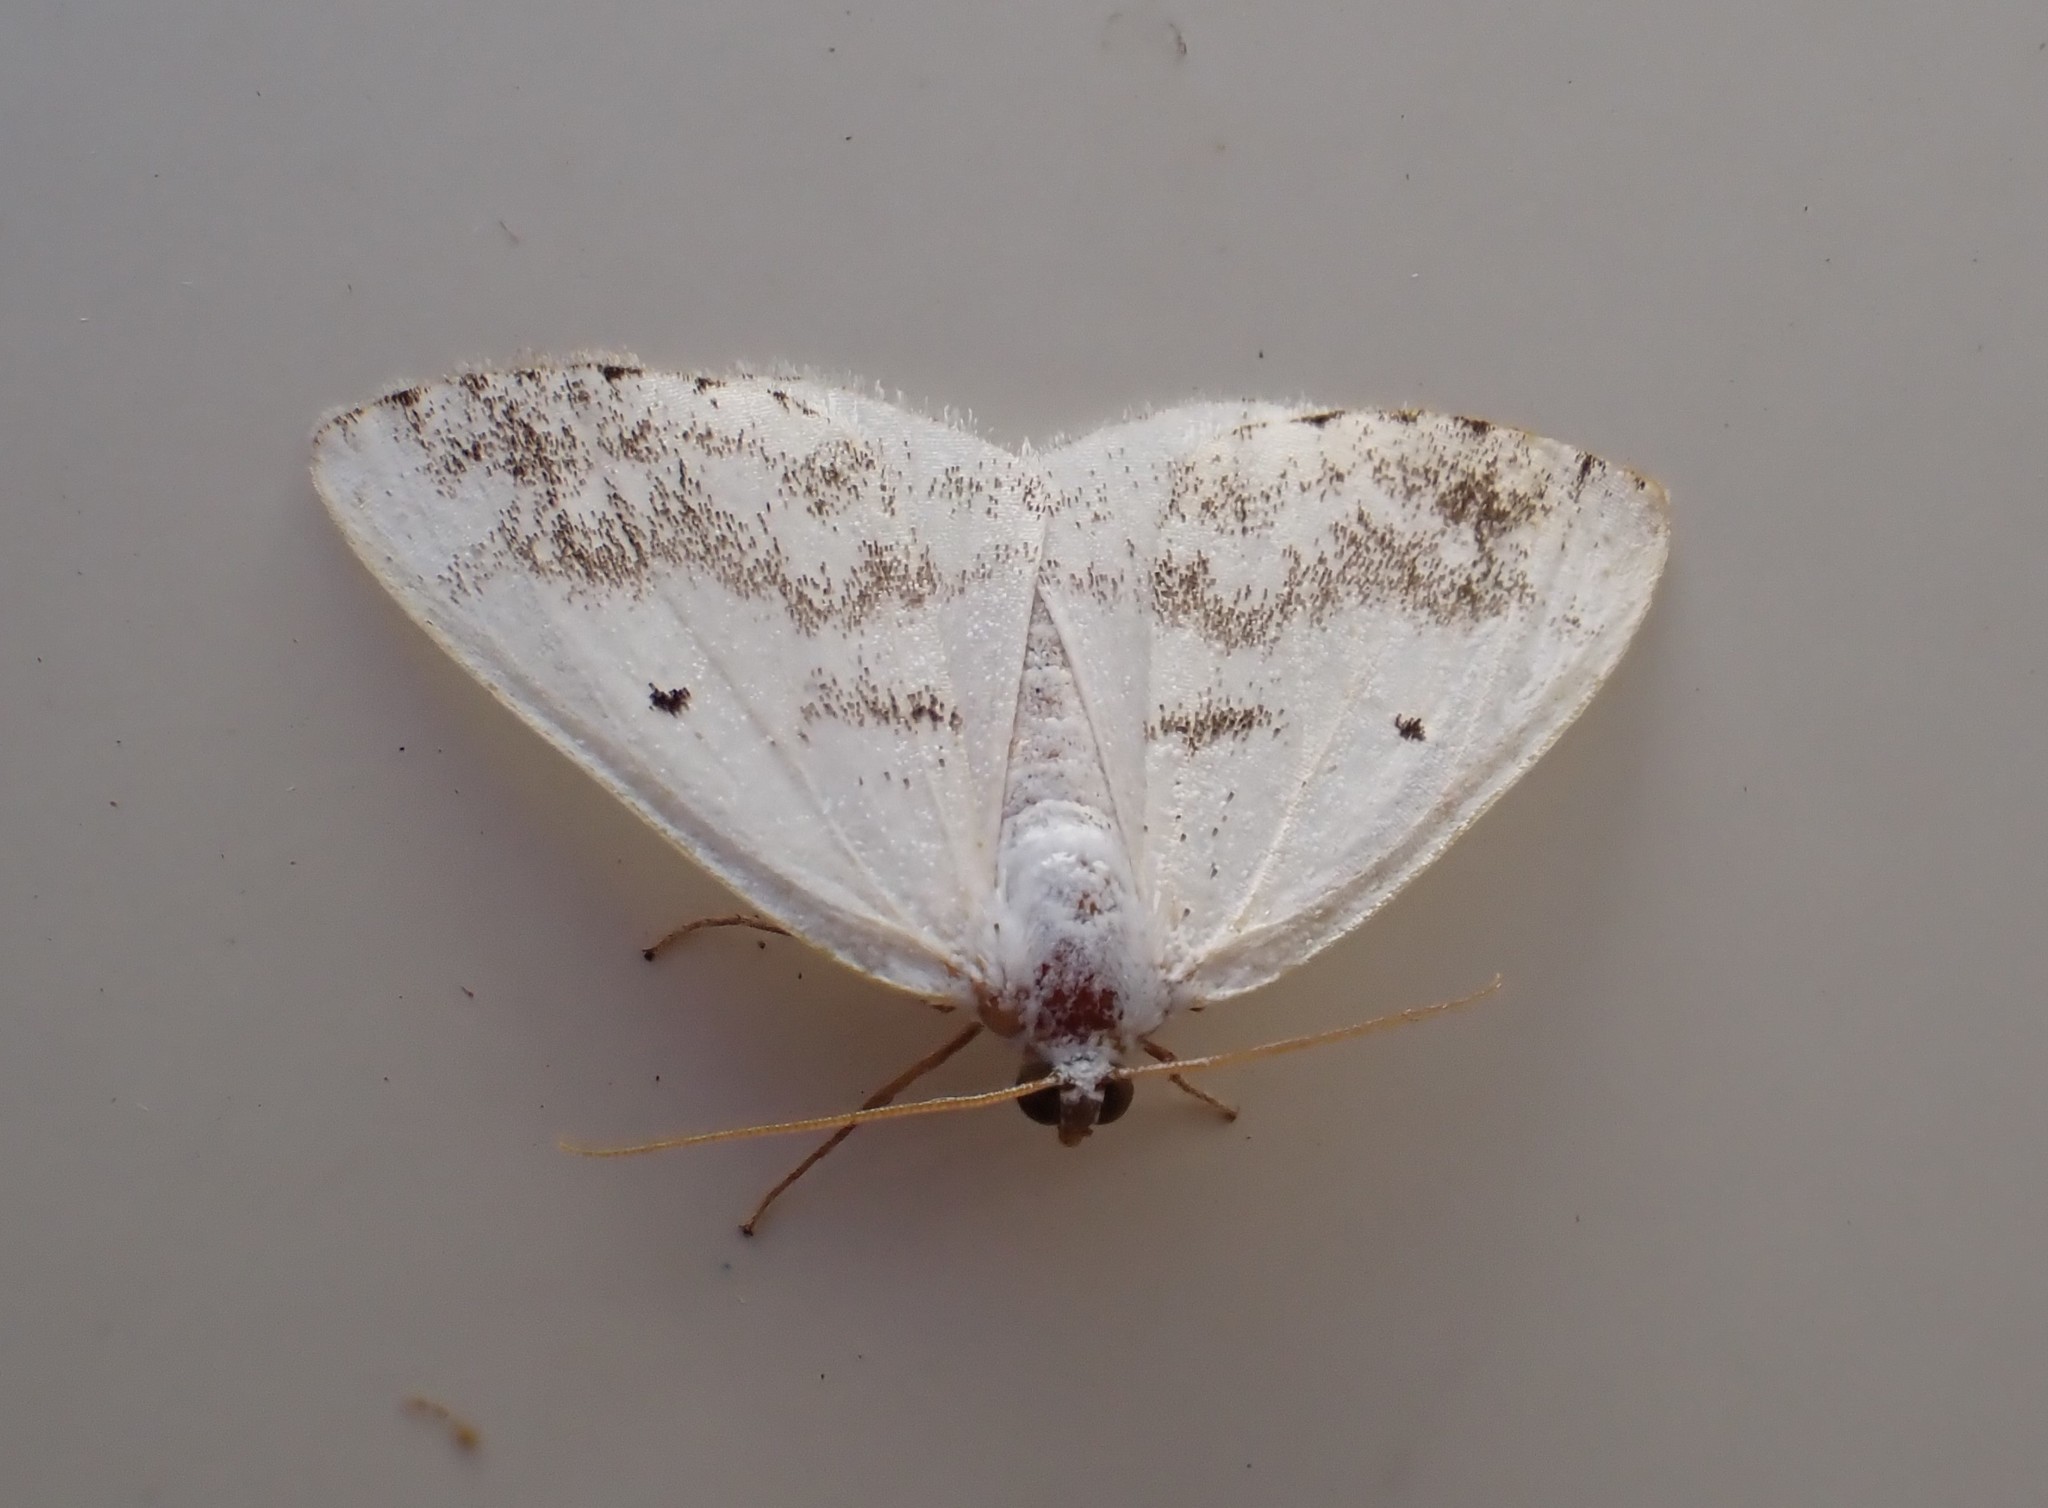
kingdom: Animalia
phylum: Arthropoda
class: Insecta
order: Lepidoptera
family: Geometridae
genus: Lomographa
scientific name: Lomographa temerata
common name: Clouded silver
